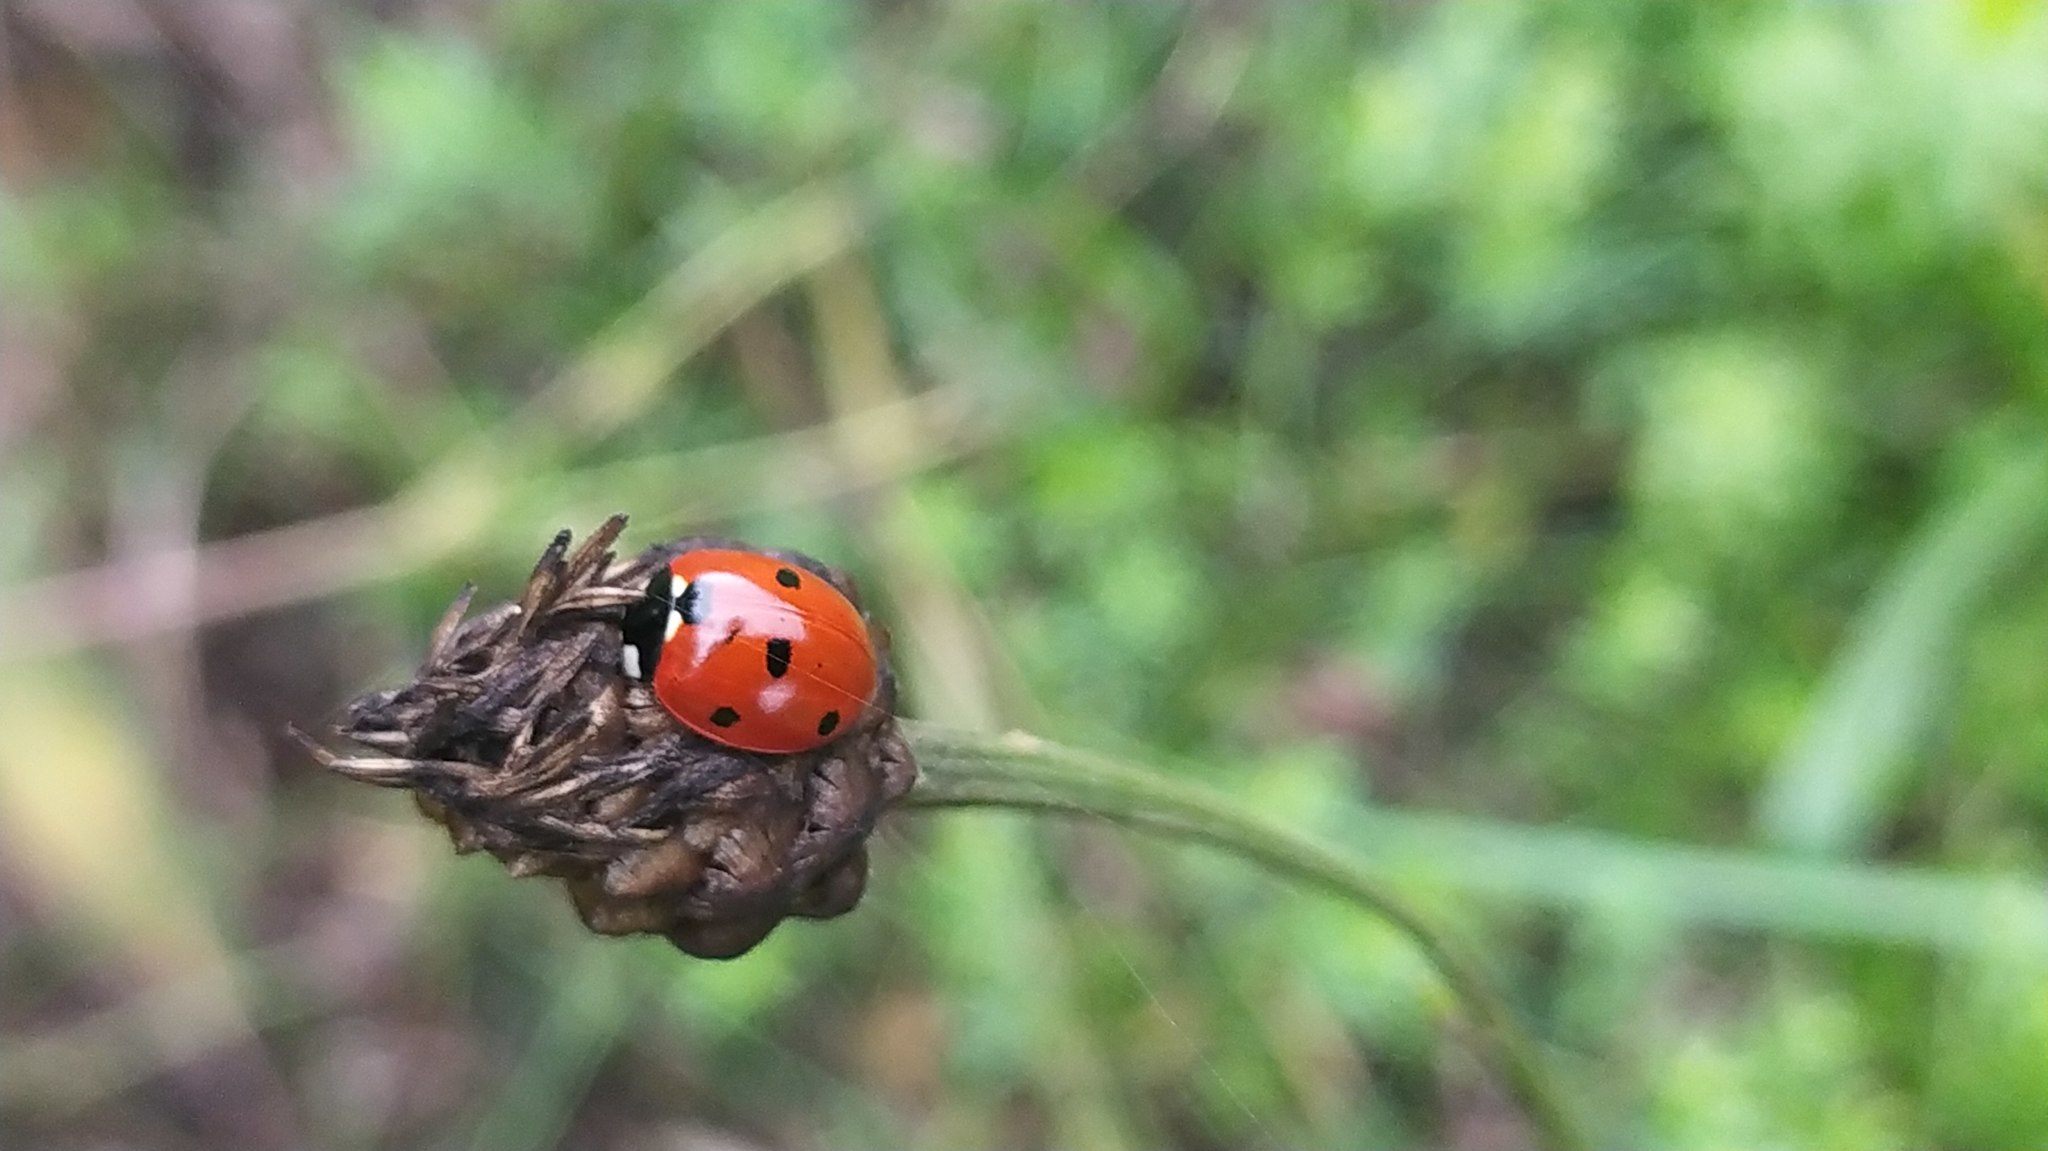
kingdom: Animalia
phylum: Arthropoda
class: Insecta
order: Coleoptera
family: Coccinellidae
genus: Coccinella
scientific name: Coccinella septempunctata
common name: Sevenspotted lady beetle
